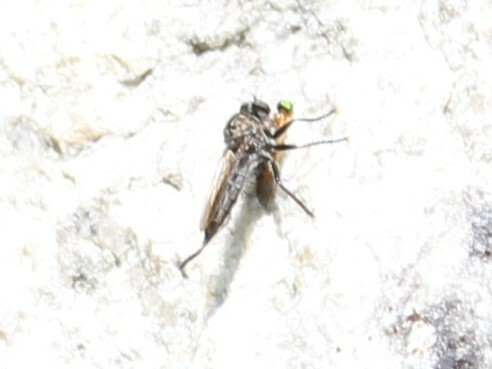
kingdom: Animalia
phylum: Arthropoda
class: Insecta
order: Diptera
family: Asilidae
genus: Efferia
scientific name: Efferia aestuans
